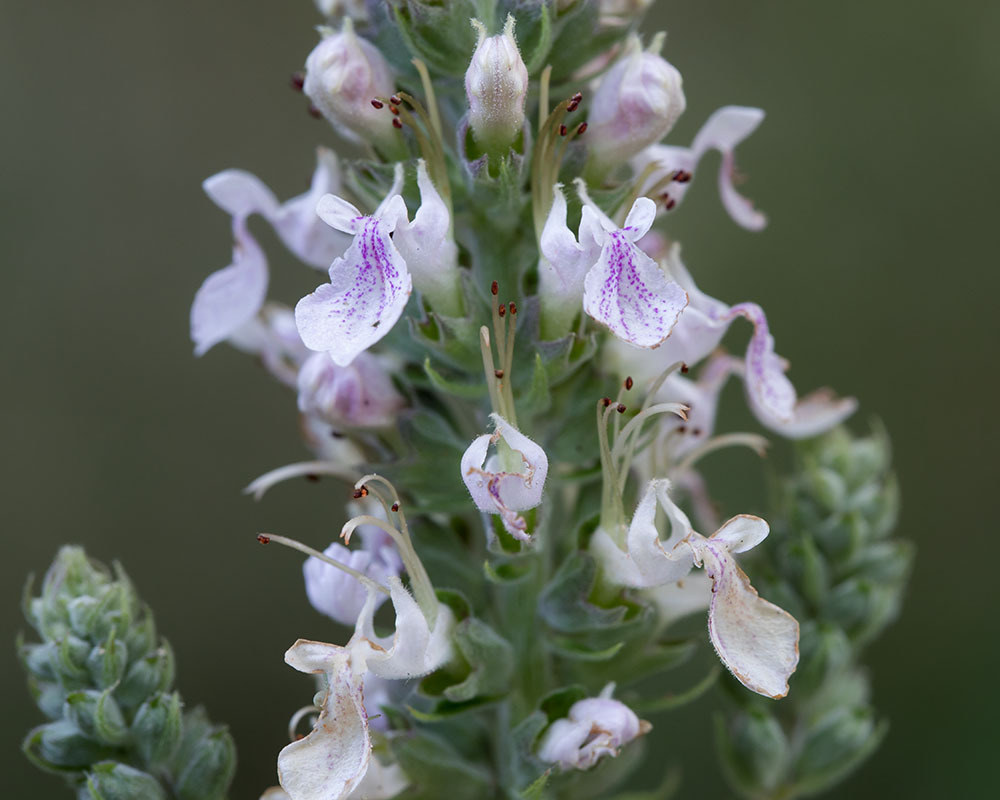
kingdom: Plantae
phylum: Tracheophyta
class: Magnoliopsida
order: Lamiales
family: Lamiaceae
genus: Teucrium
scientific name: Teucrium canadense
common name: American germander
